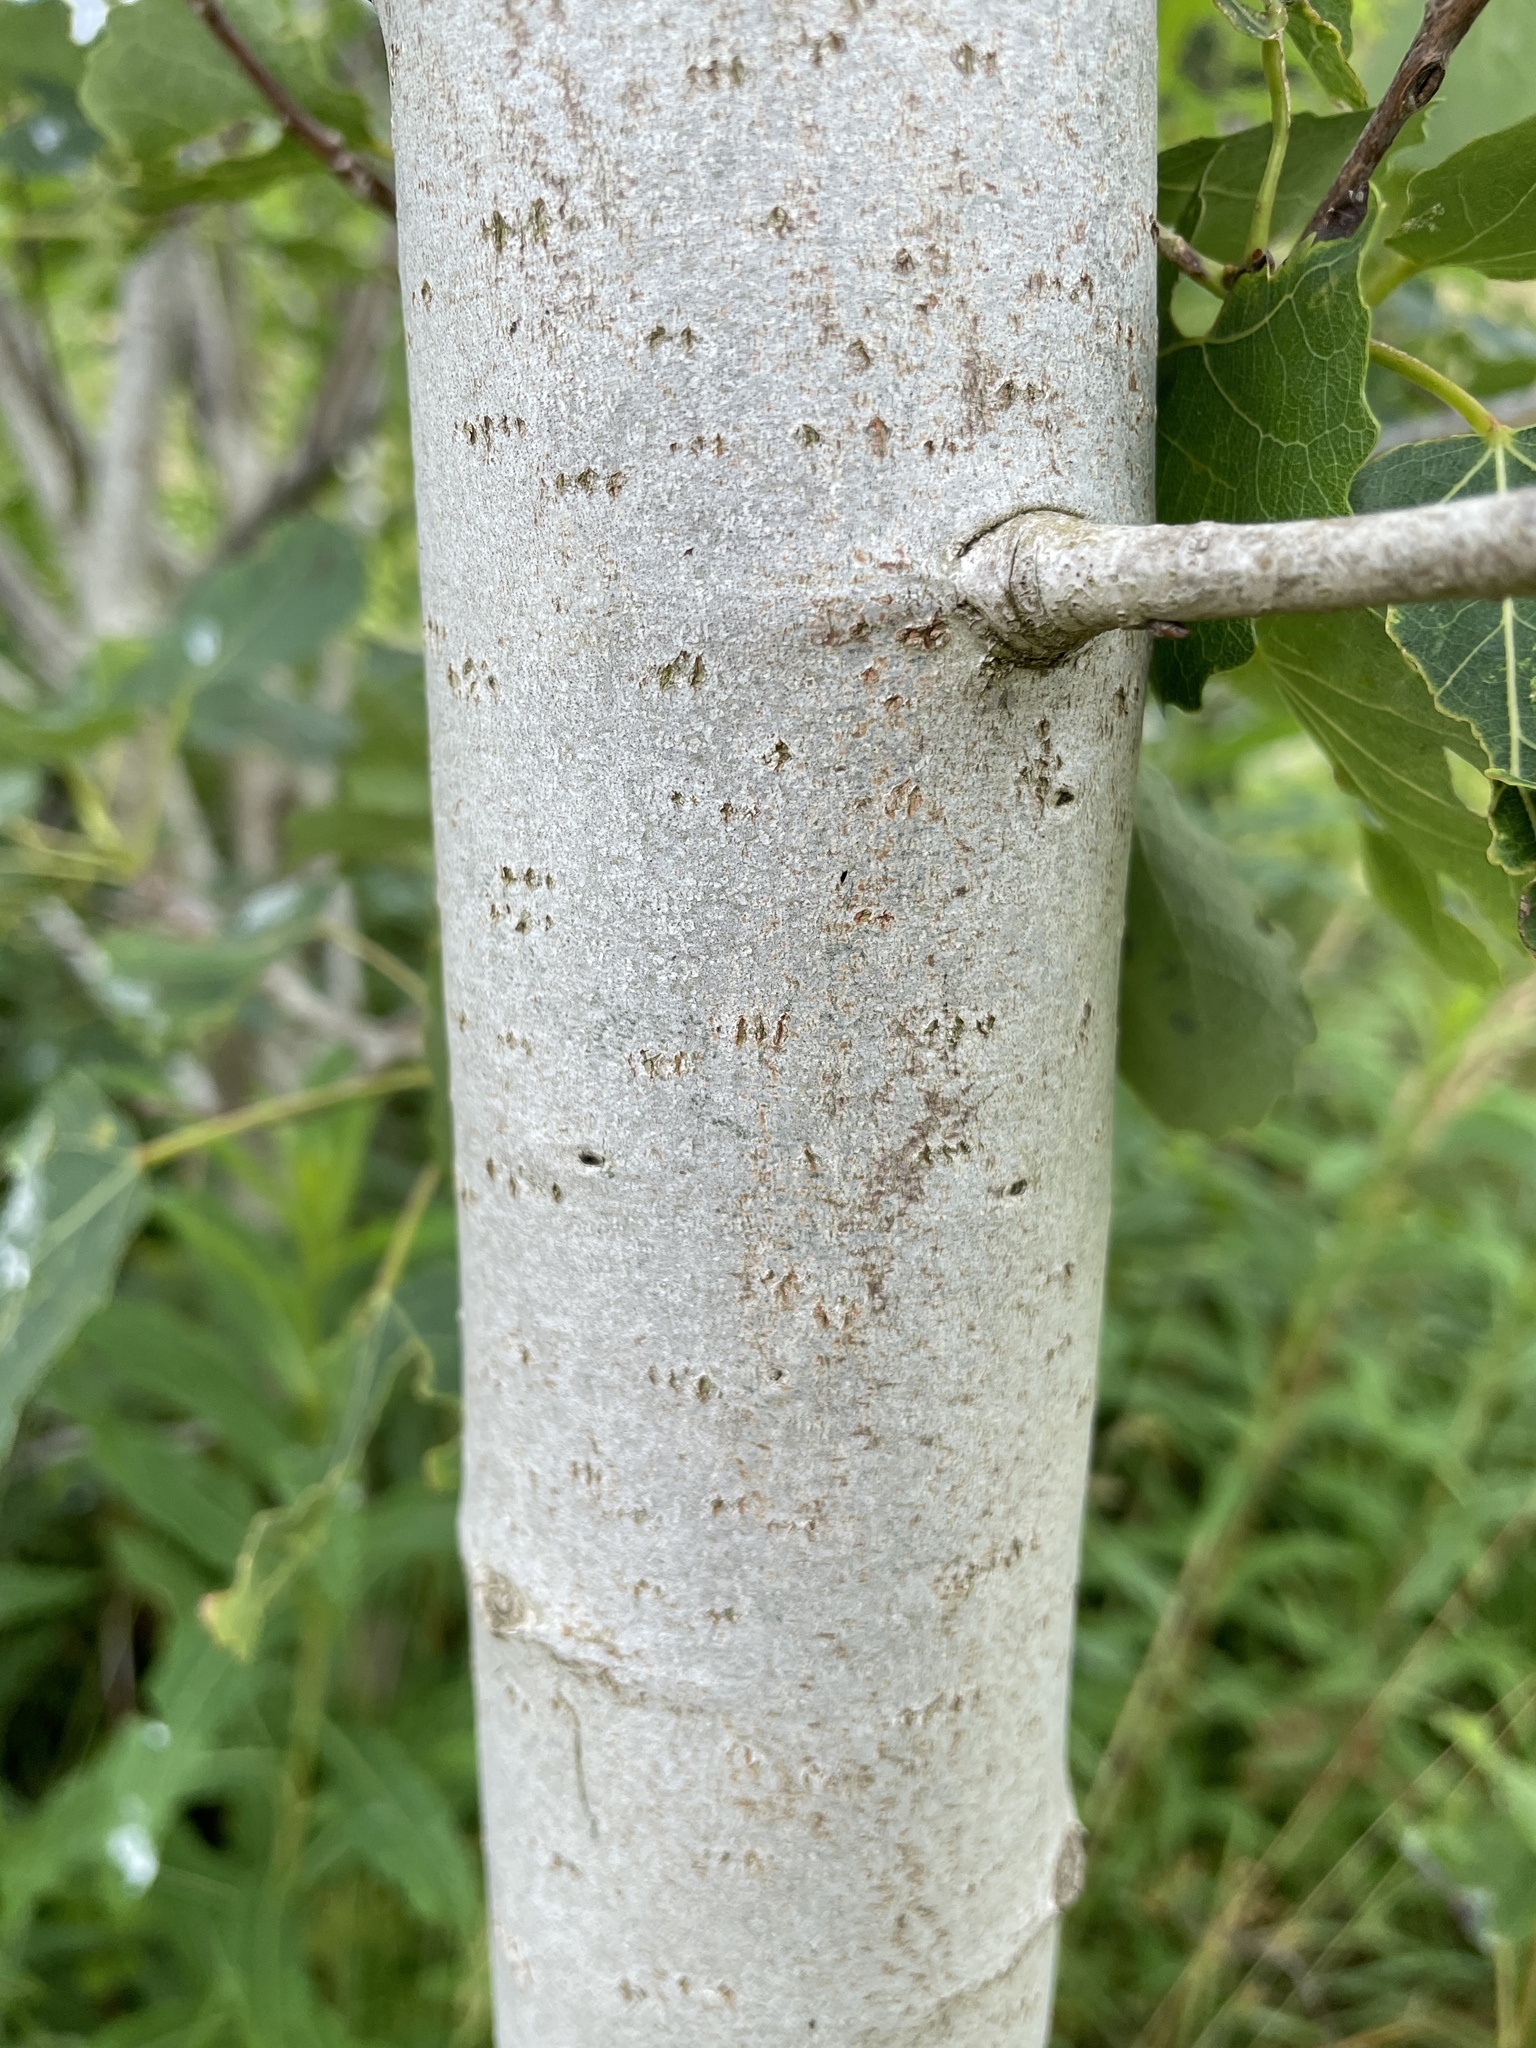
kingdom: Plantae
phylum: Tracheophyta
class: Magnoliopsida
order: Malpighiales
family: Salicaceae
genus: Populus
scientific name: Populus tremula
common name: European aspen
